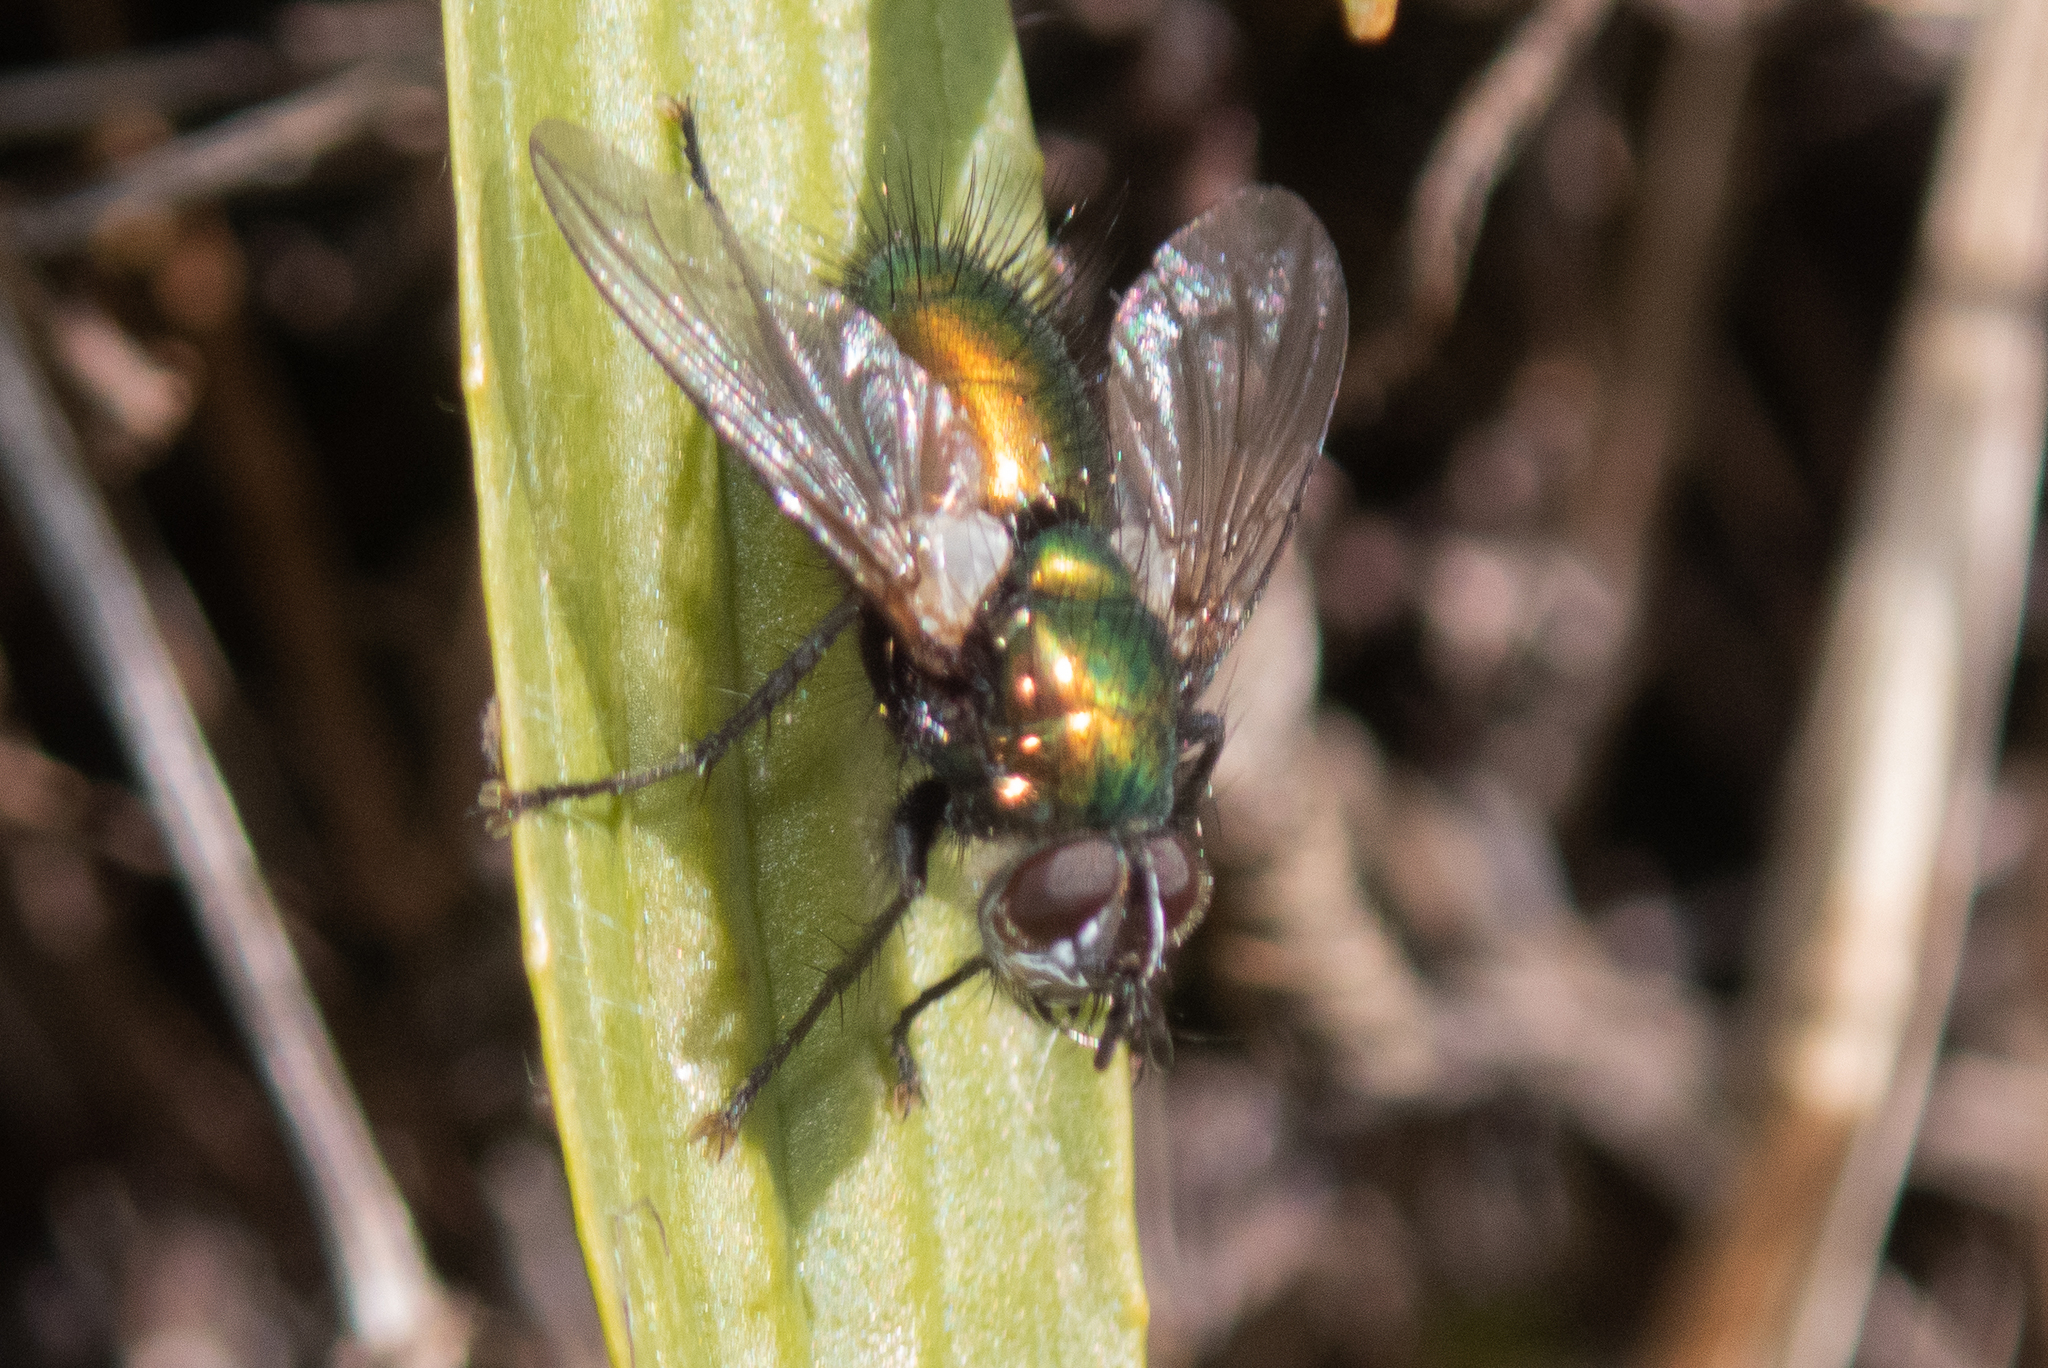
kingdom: Animalia
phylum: Arthropoda
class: Insecta
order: Diptera
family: Tachinidae
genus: Gymnocheta
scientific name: Gymnocheta viridis
